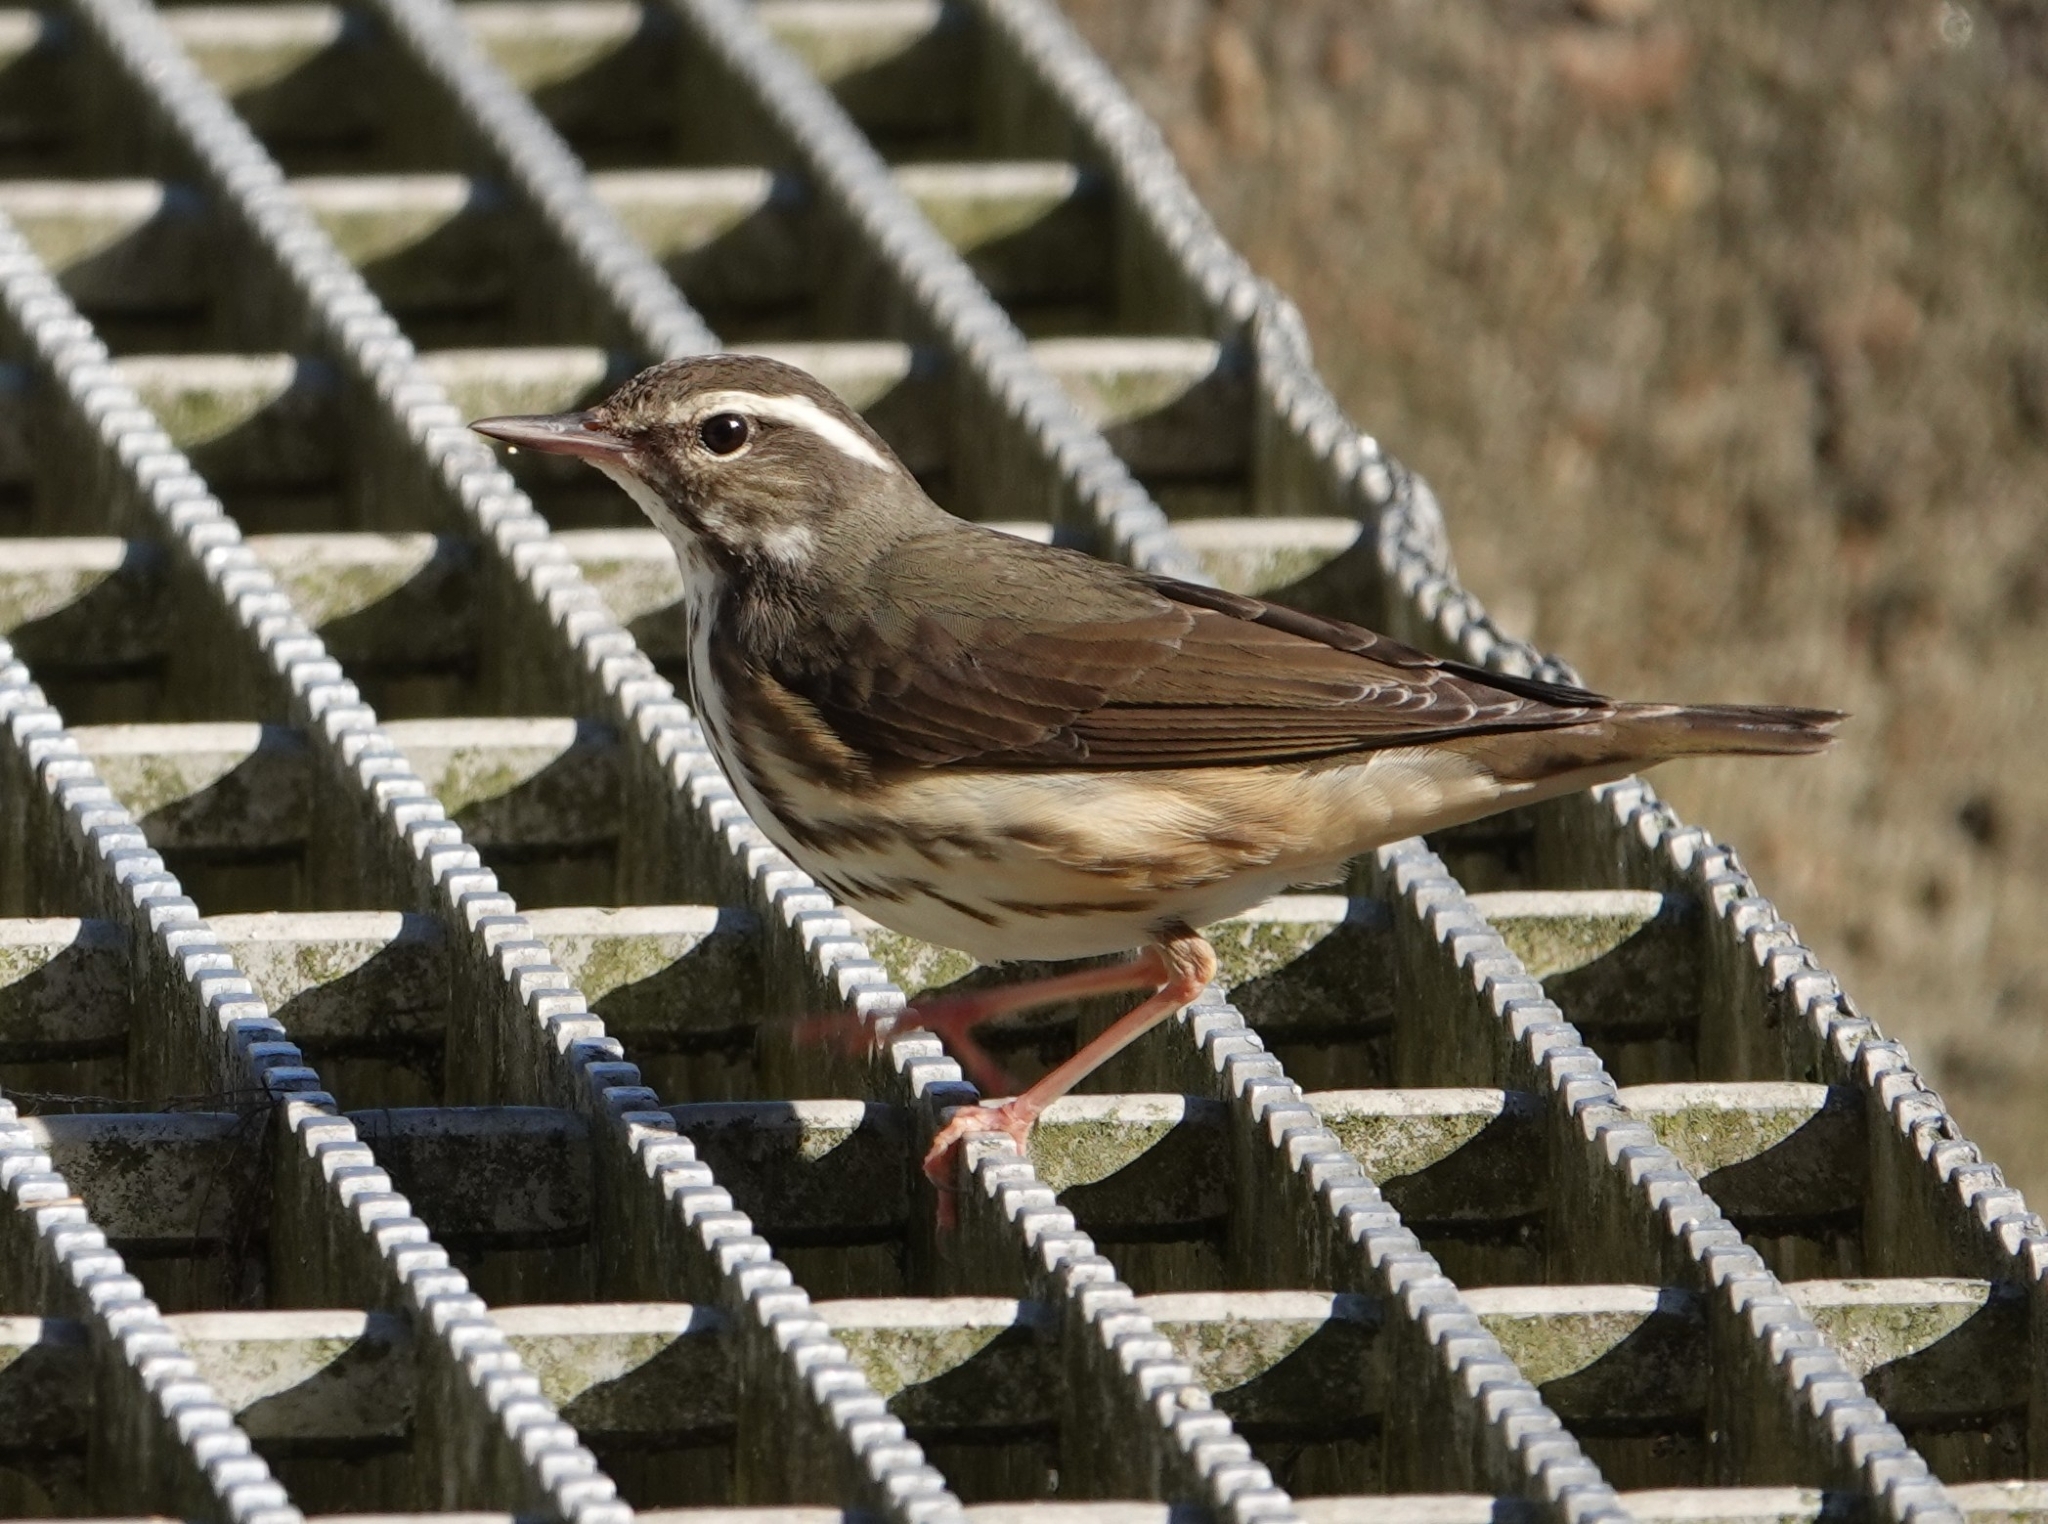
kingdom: Animalia
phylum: Chordata
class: Aves
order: Passeriformes
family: Parulidae
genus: Parkesia
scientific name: Parkesia motacilla
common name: Louisiana waterthrush
